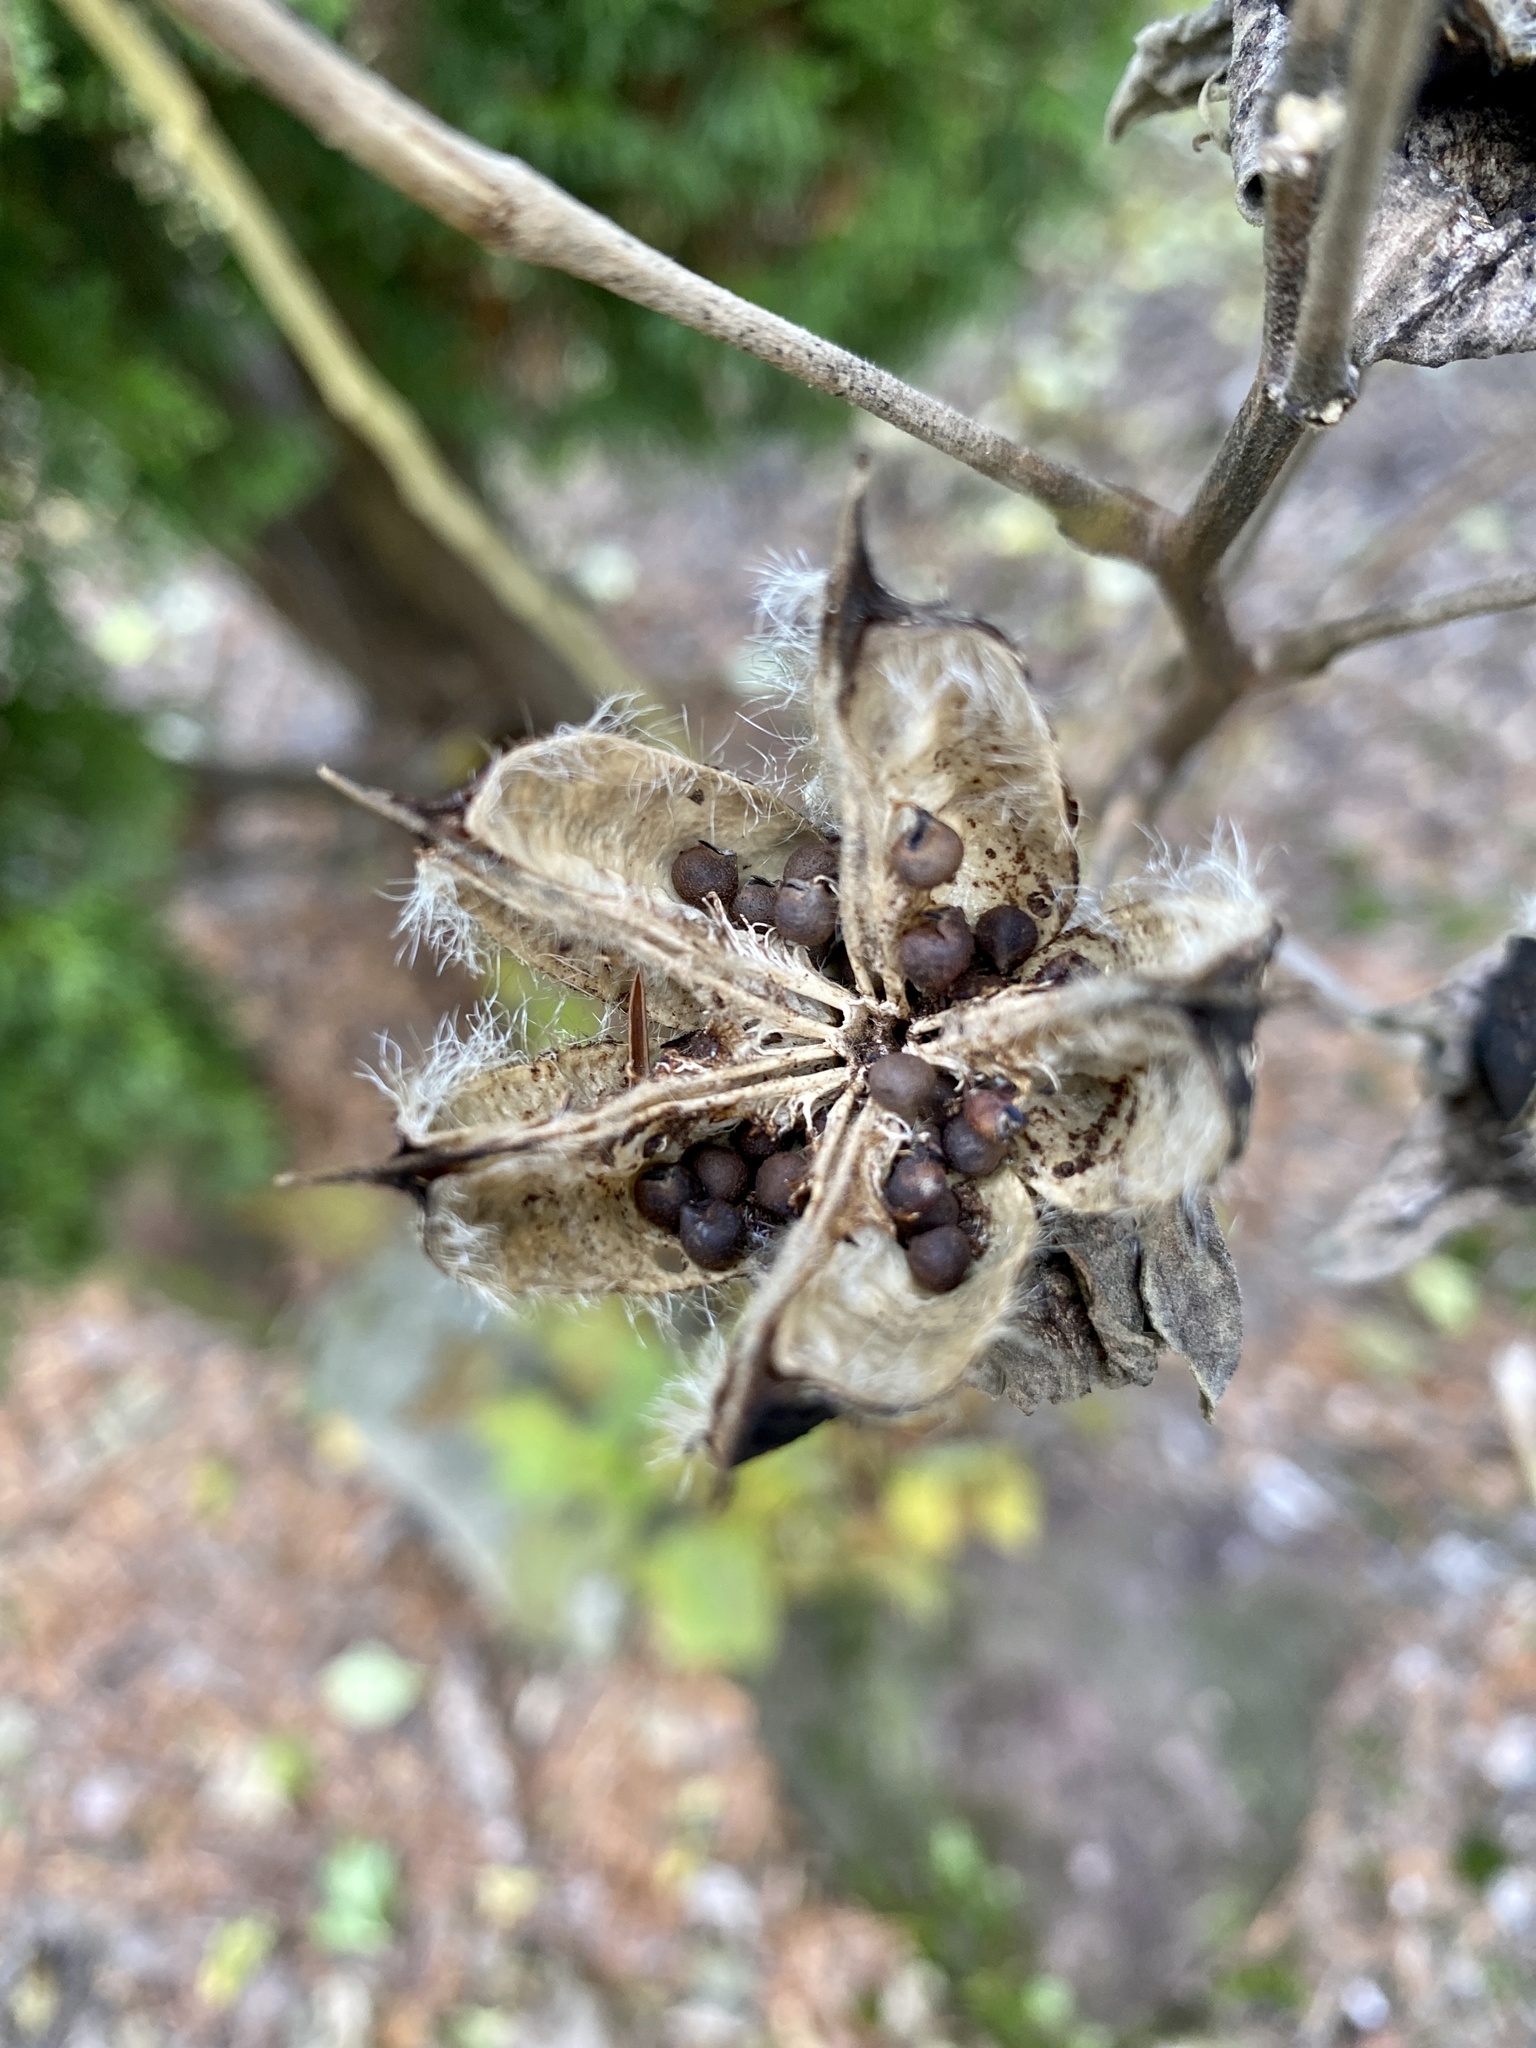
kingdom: Plantae
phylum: Tracheophyta
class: Magnoliopsida
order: Malvales
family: Malvaceae
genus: Hibiscus
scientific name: Hibiscus moscheutos
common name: Common rose-mallow
